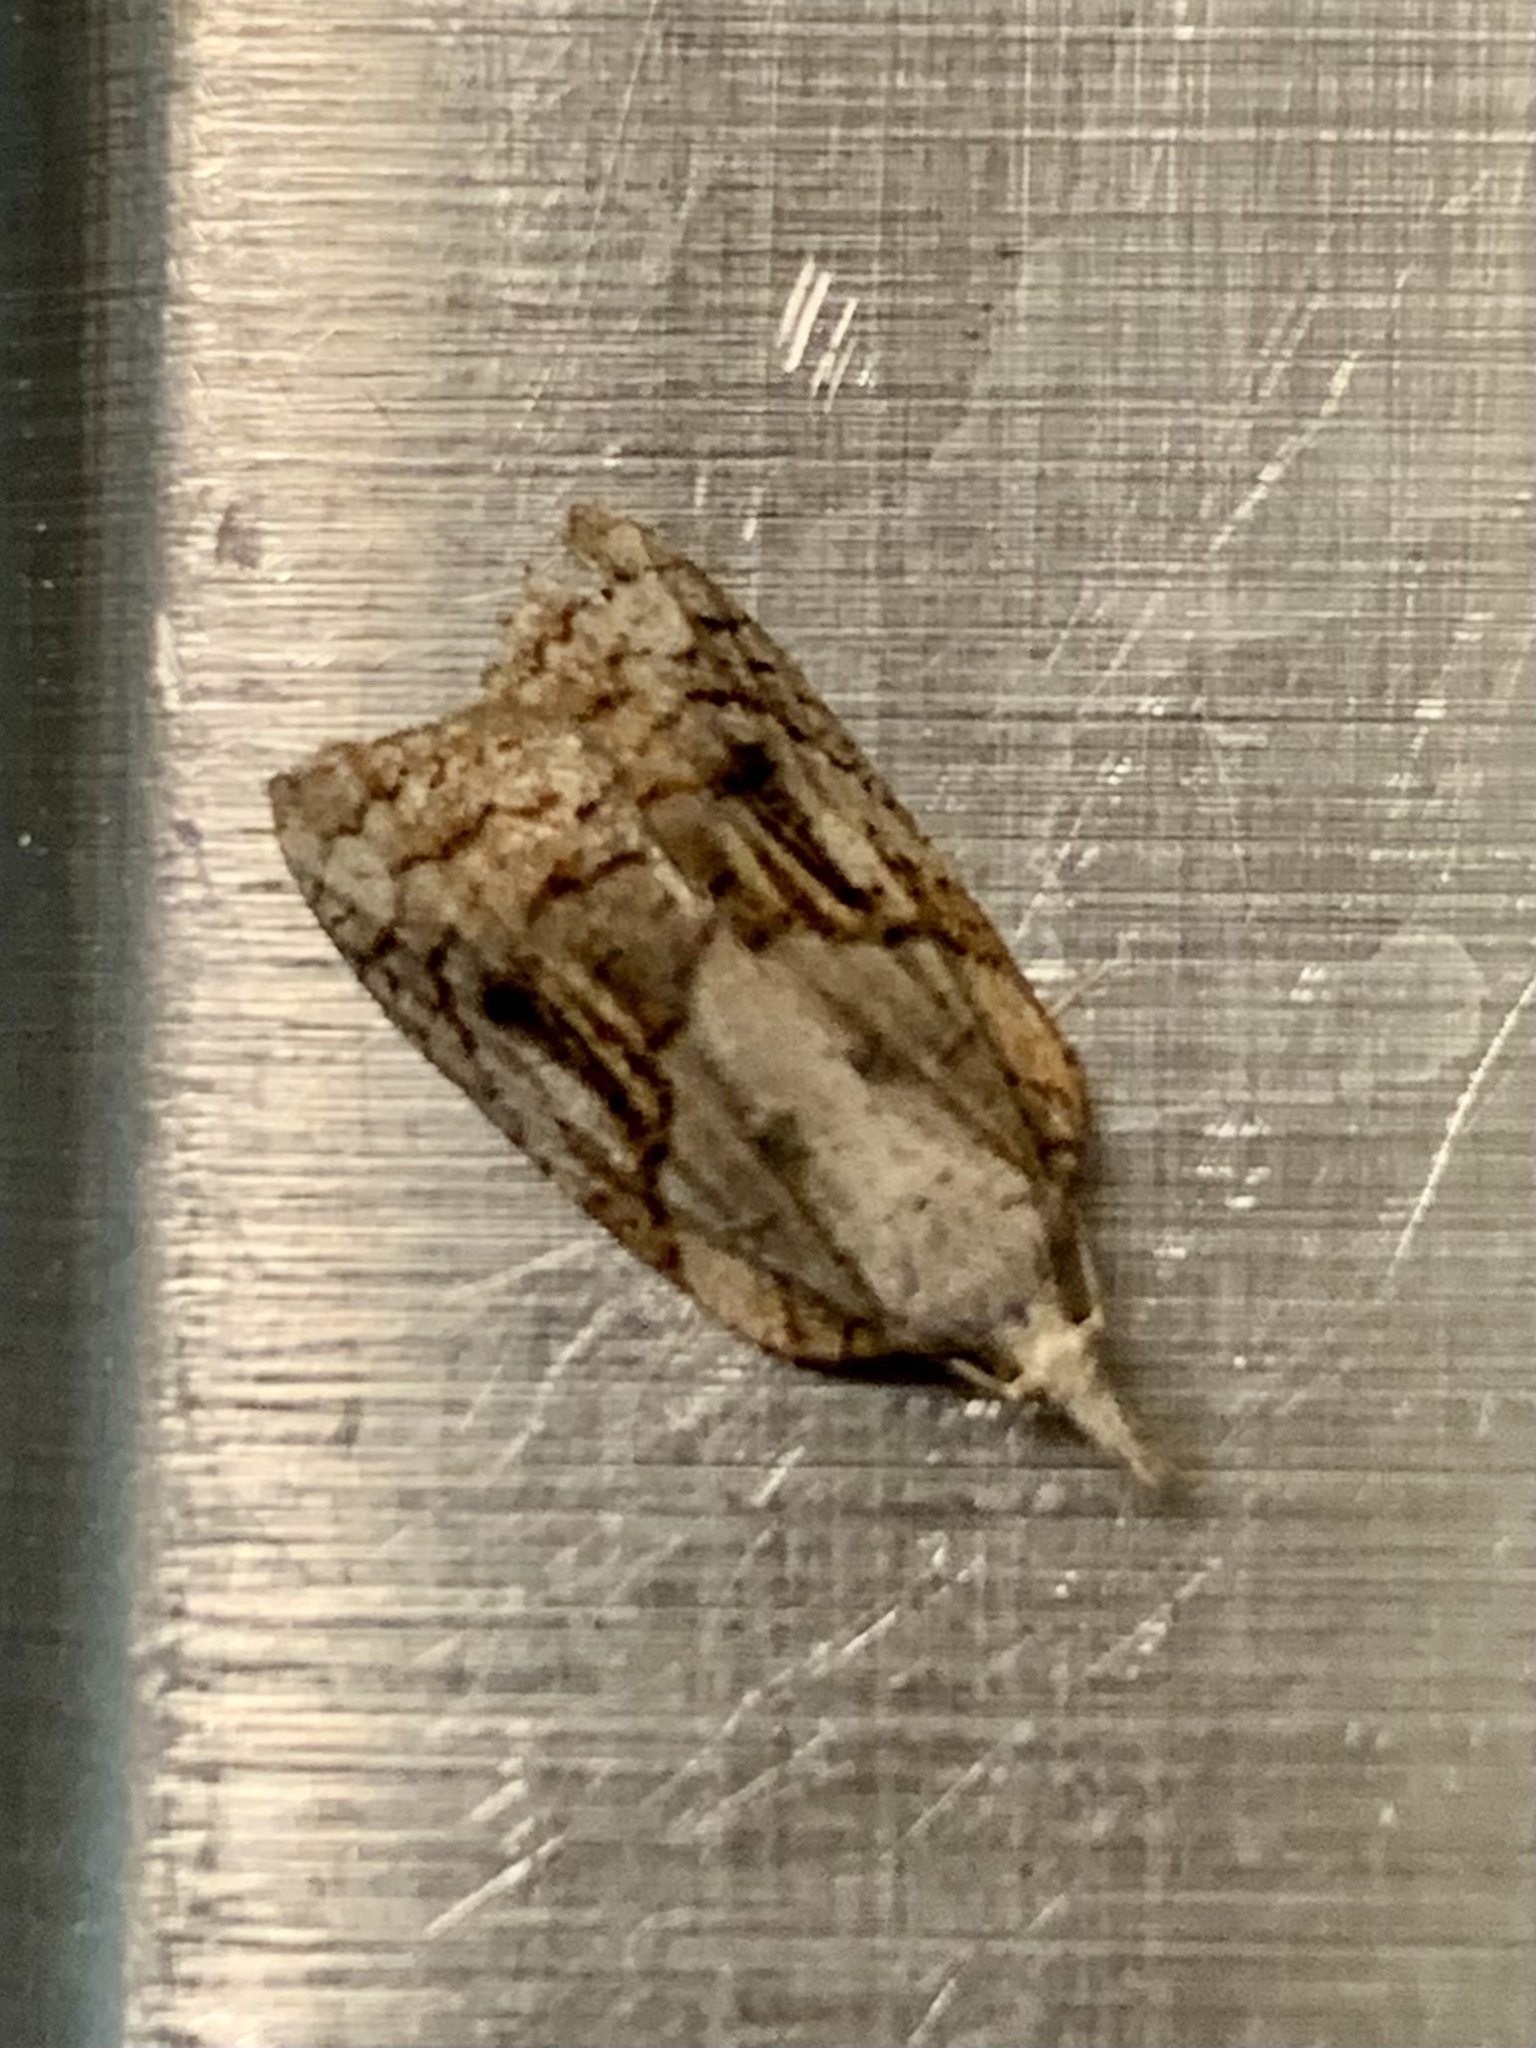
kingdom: Animalia
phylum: Arthropoda
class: Insecta
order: Lepidoptera
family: Tortricidae
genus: Platynota
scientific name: Platynota idaeusalis
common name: Tufted apple bud moth
